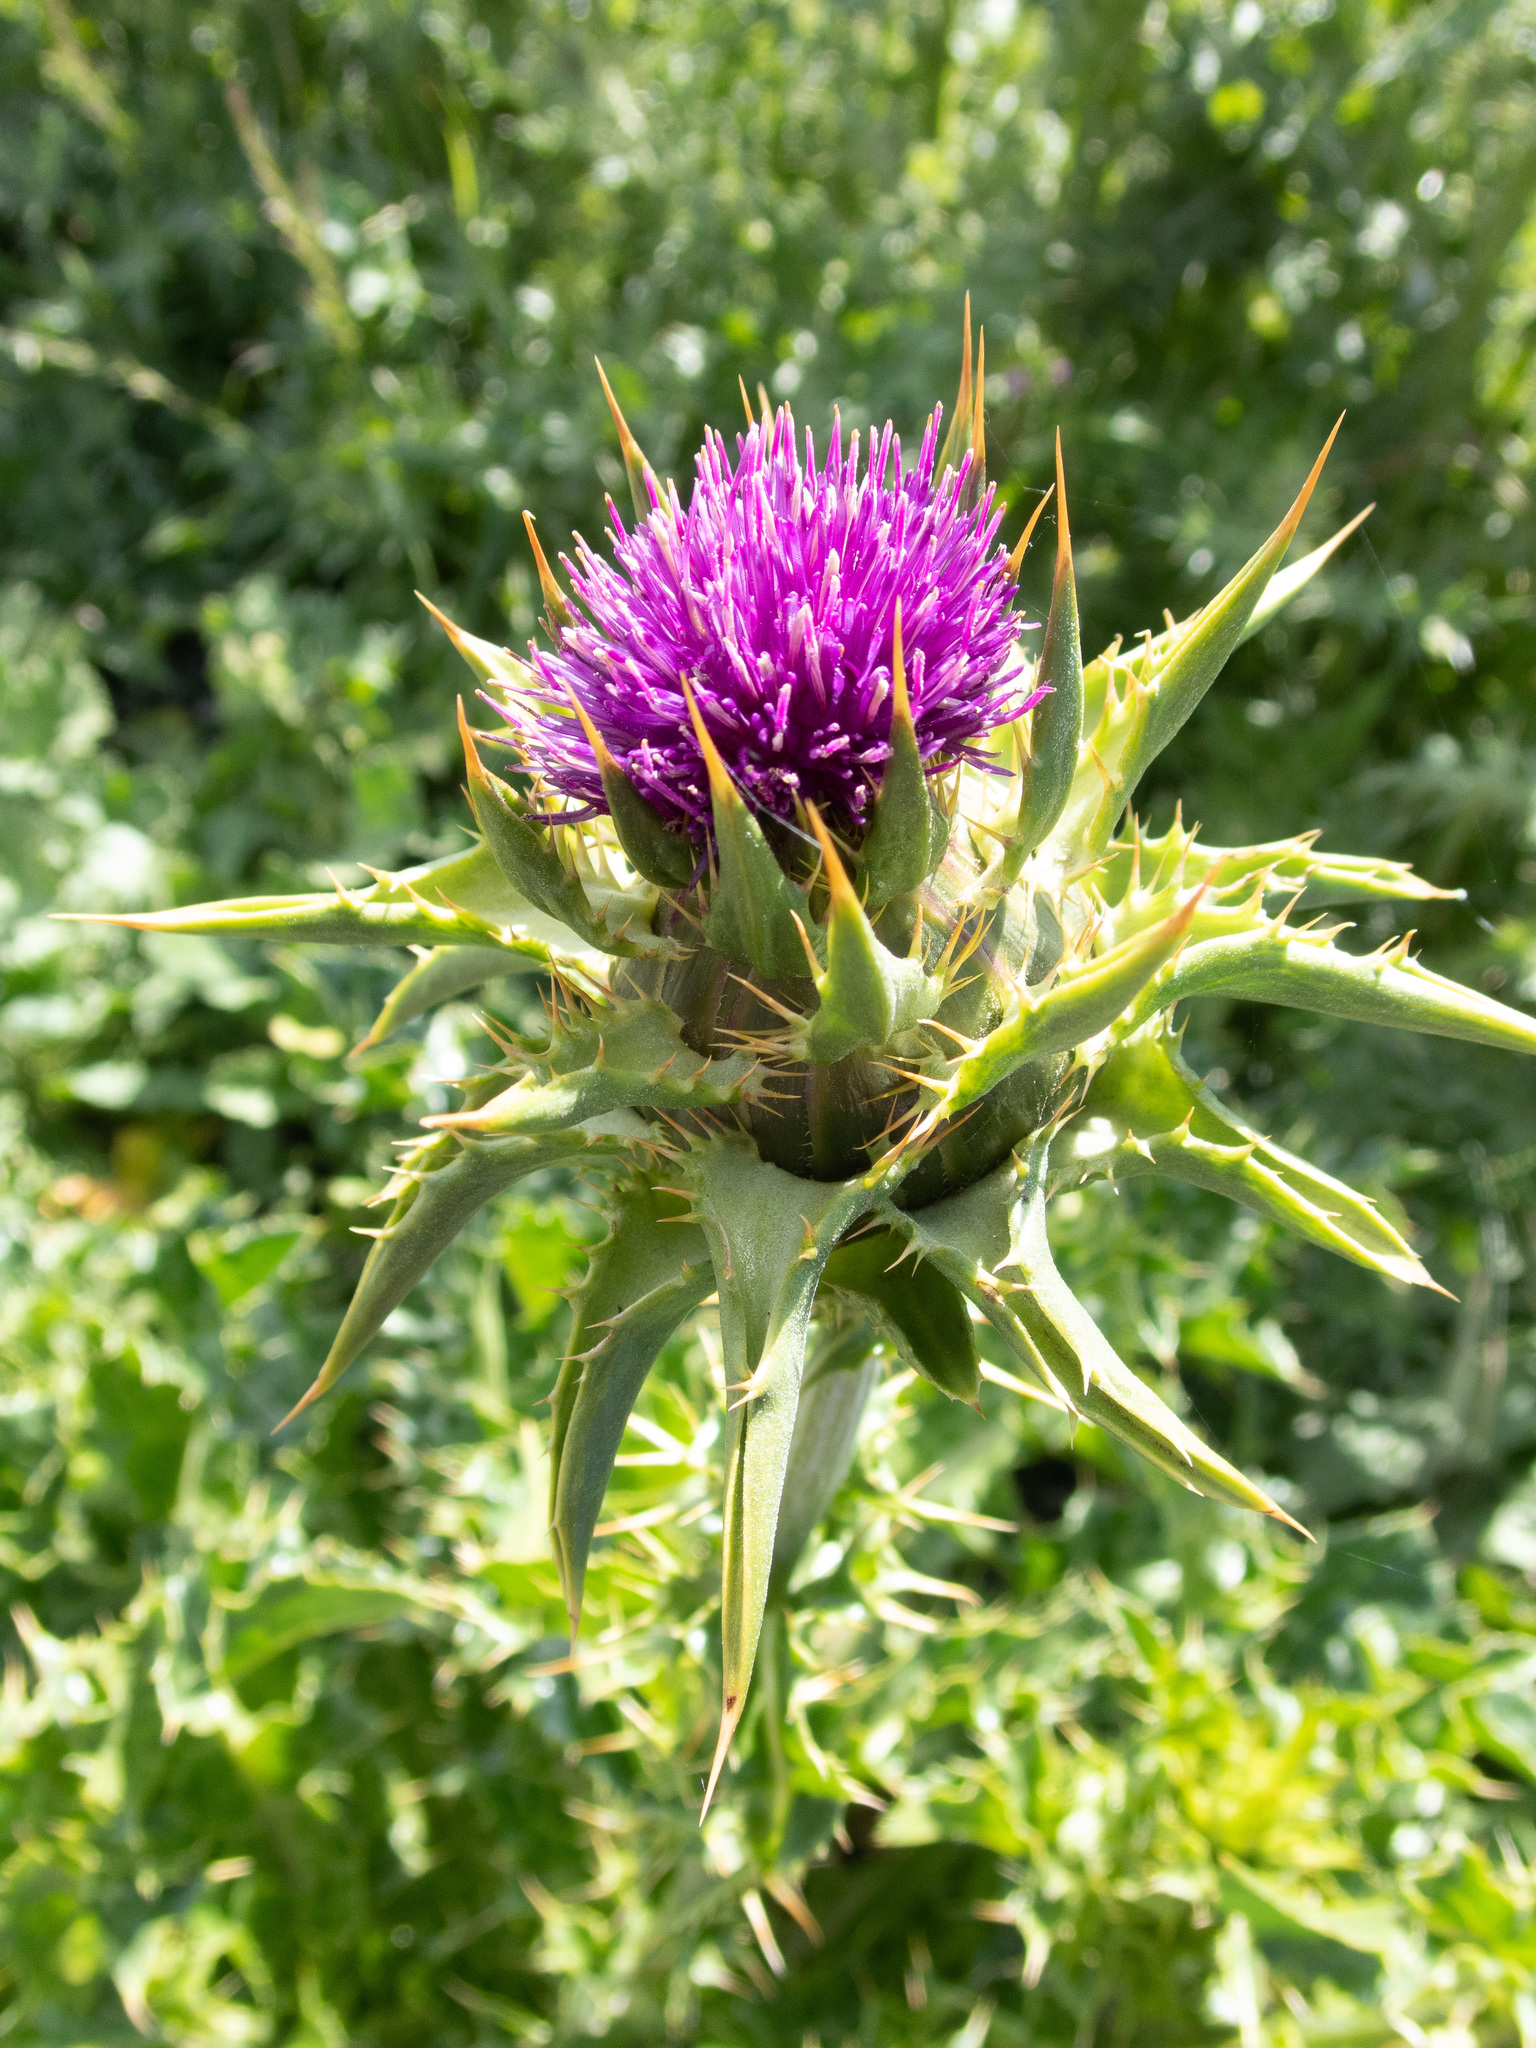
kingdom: Plantae
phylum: Tracheophyta
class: Magnoliopsida
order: Asterales
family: Asteraceae
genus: Silybum
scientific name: Silybum marianum
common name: Milk thistle
